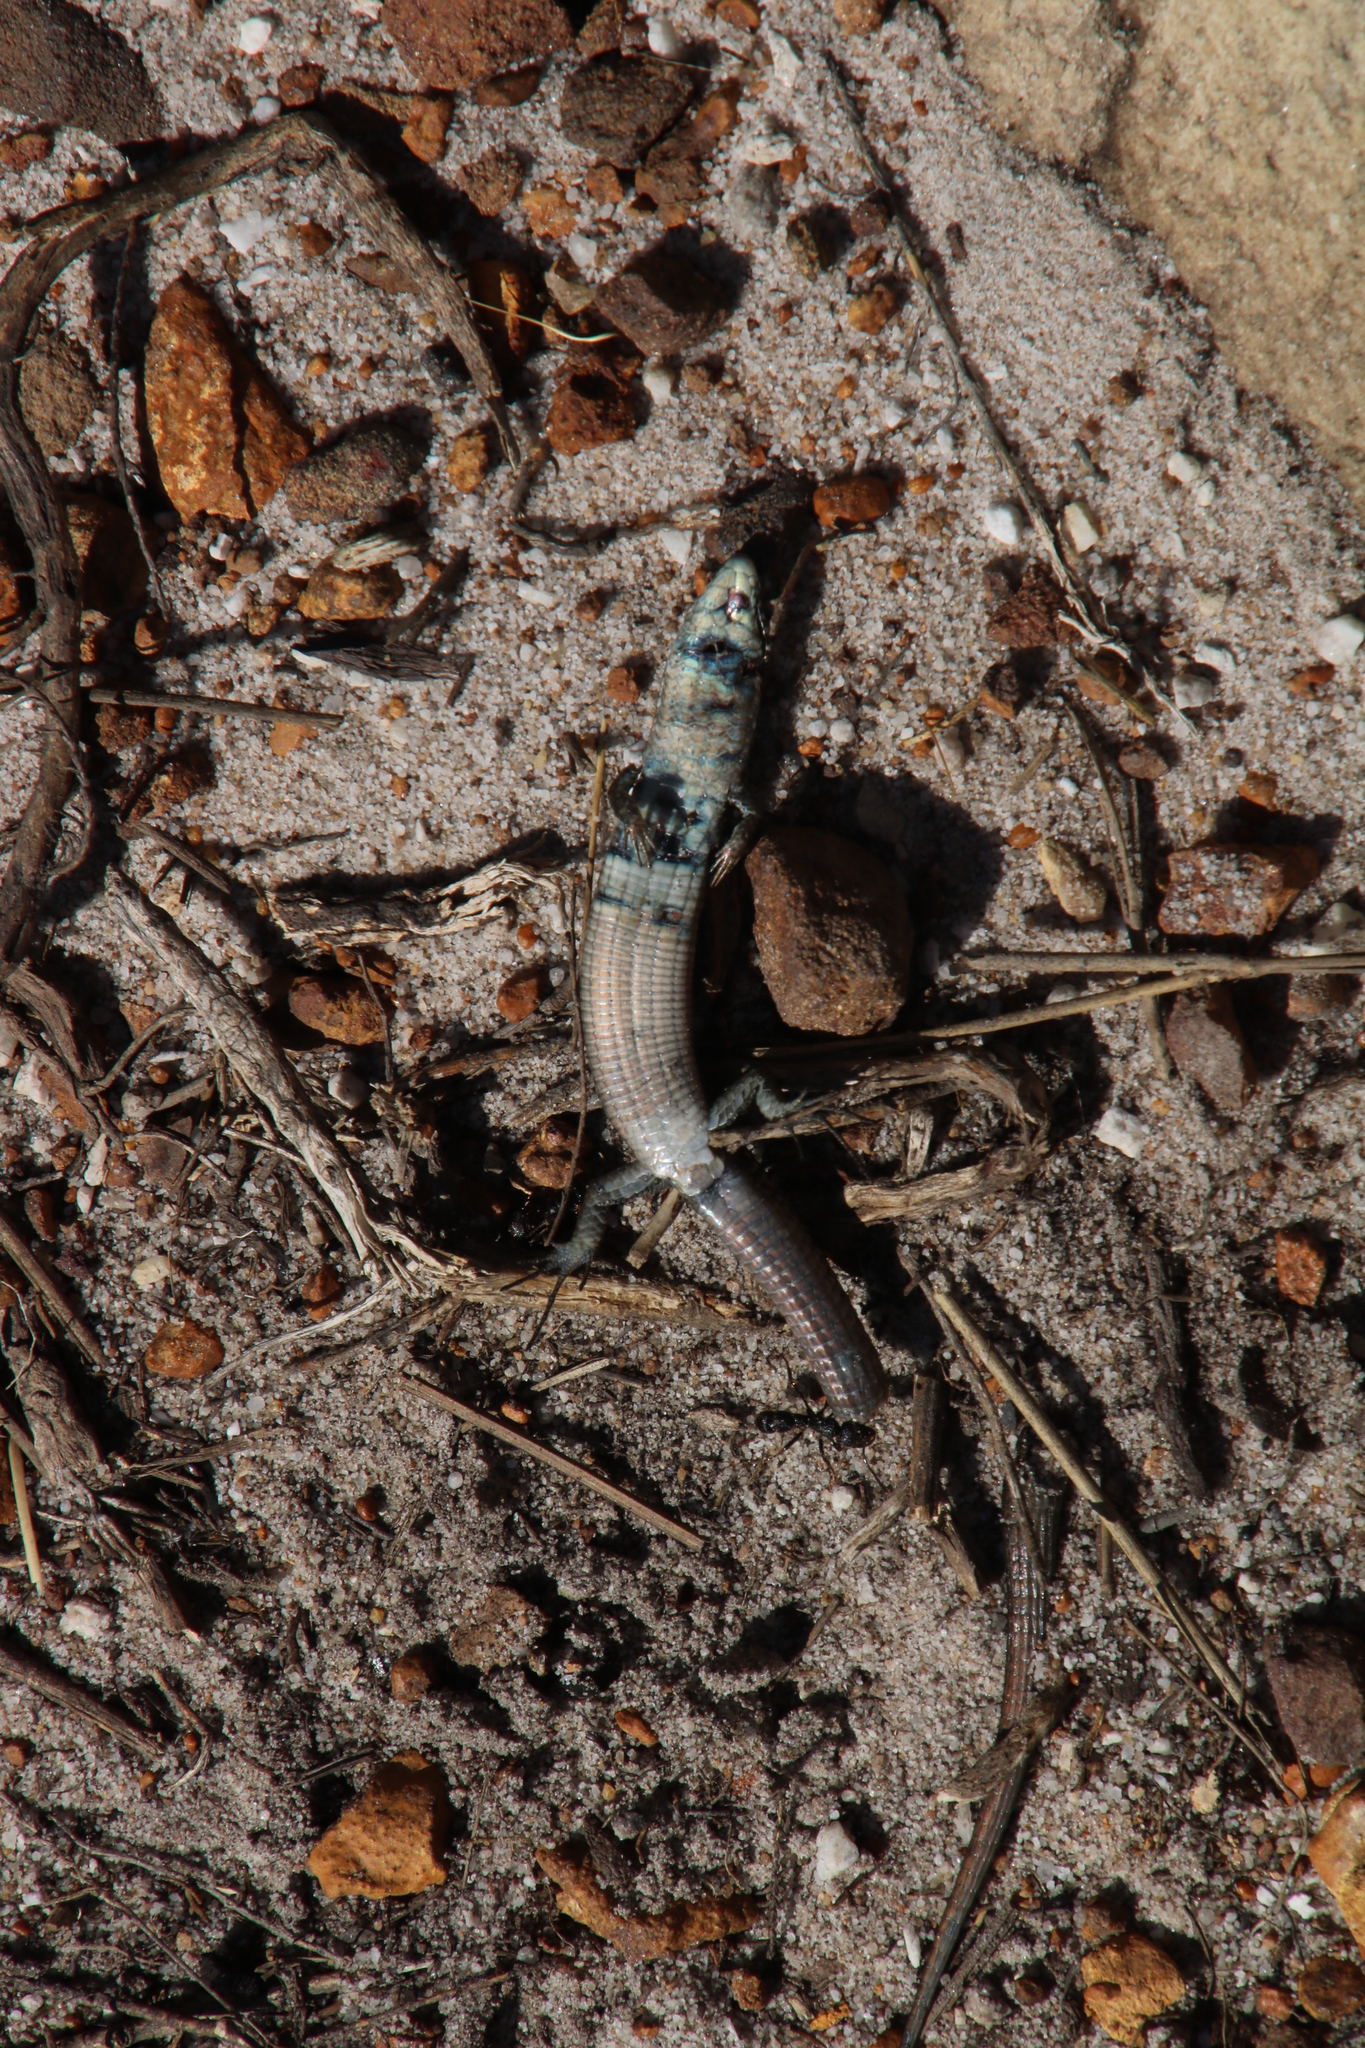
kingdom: Animalia
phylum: Chordata
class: Squamata
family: Gerrhosauridae
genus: Tetradactylus
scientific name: Tetradactylus seps
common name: Five-toed whip lizard
